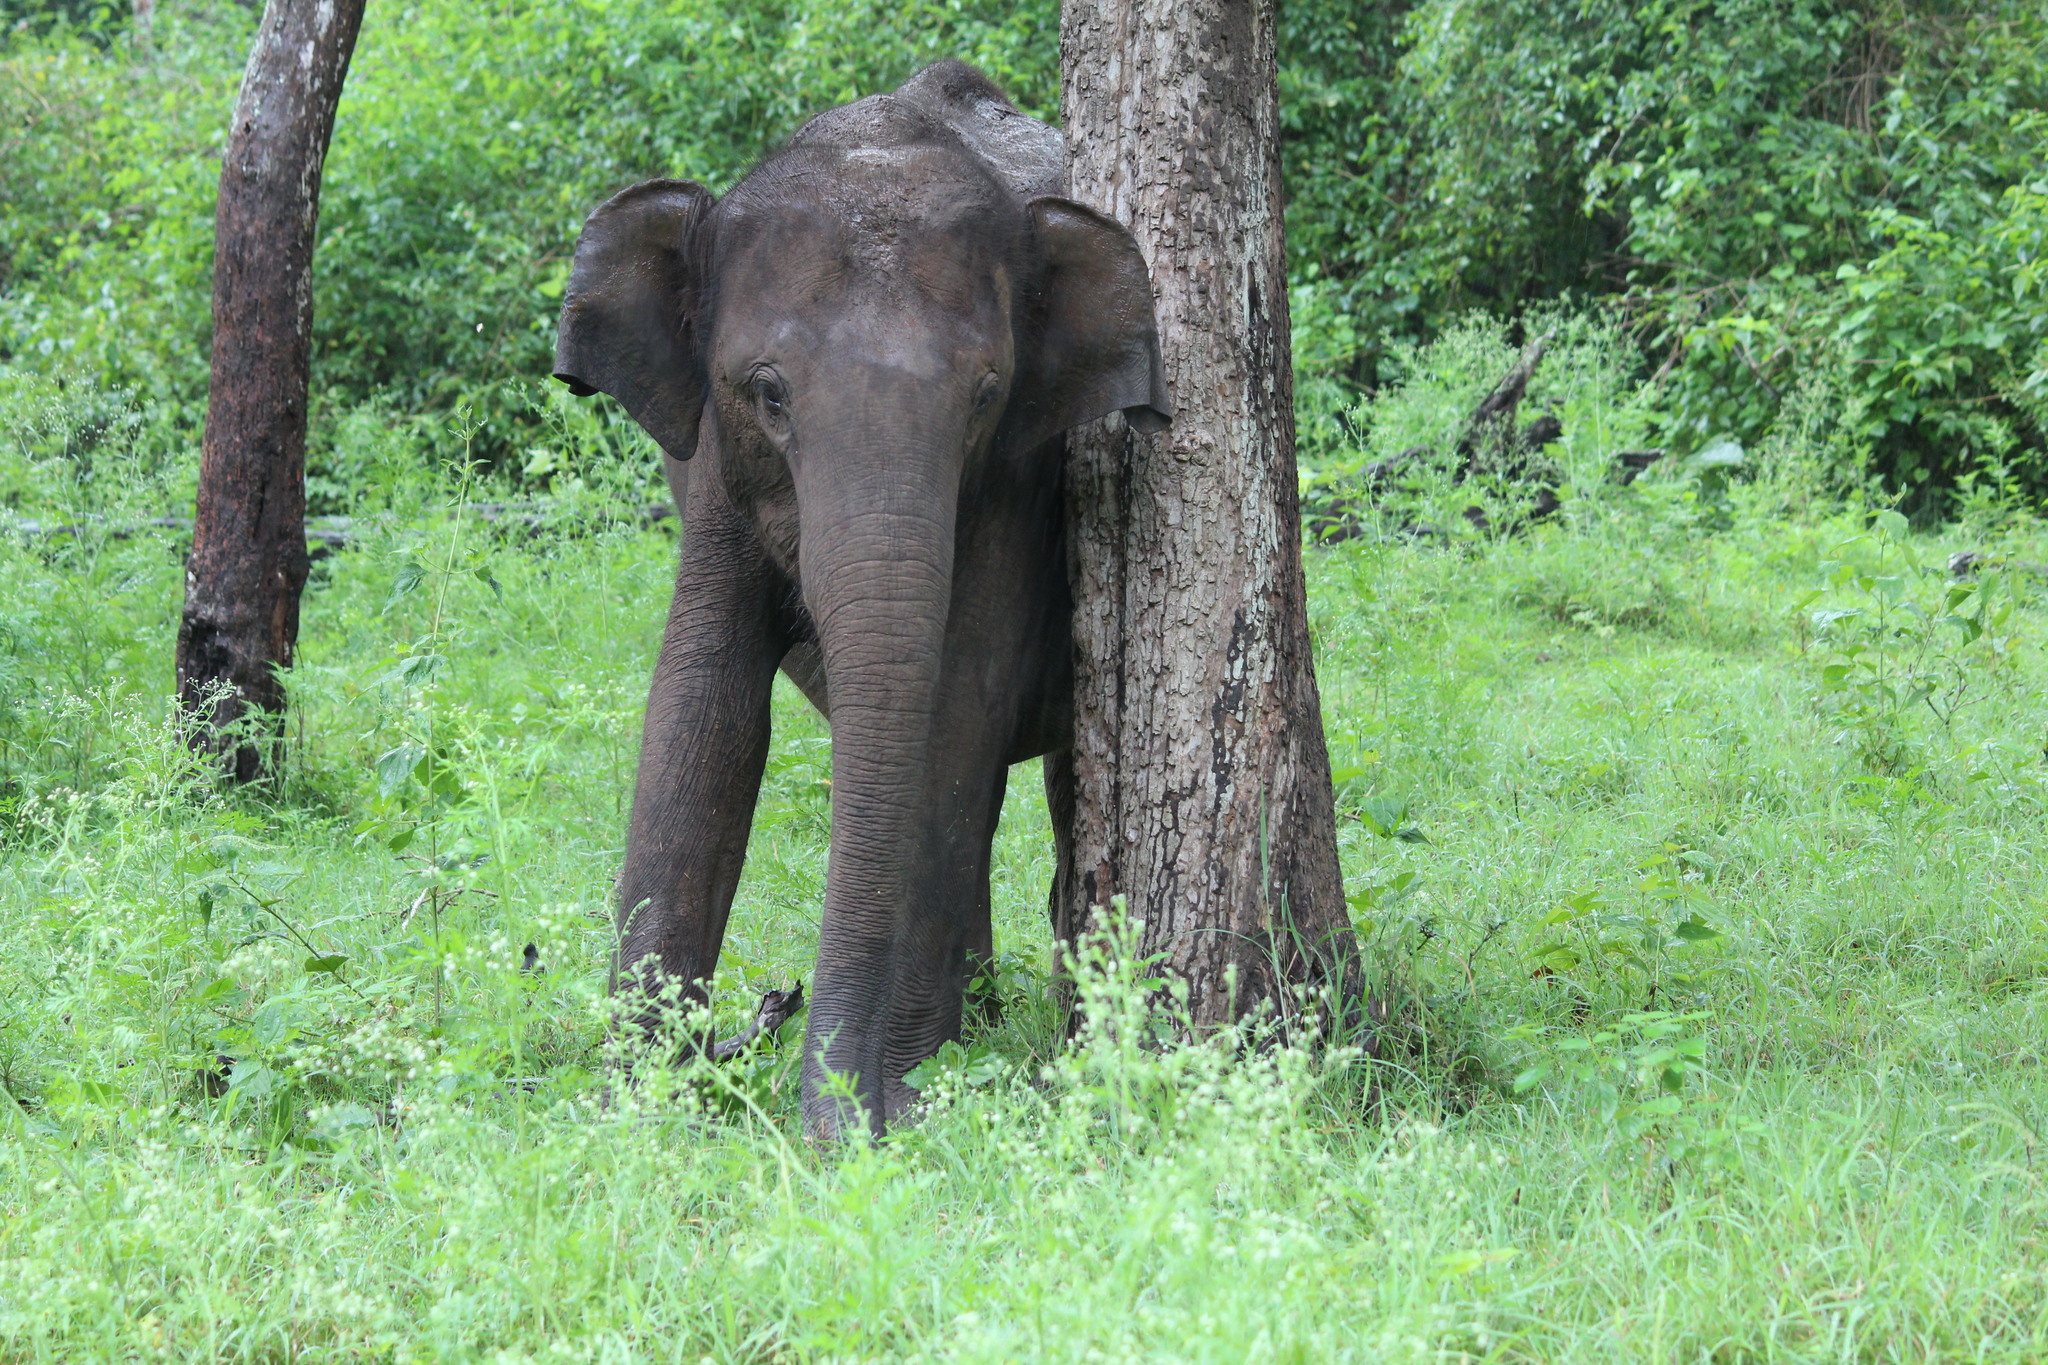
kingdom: Animalia
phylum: Chordata
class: Mammalia
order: Proboscidea
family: Elephantidae
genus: Elephas
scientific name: Elephas maximus
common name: Asian elephant
